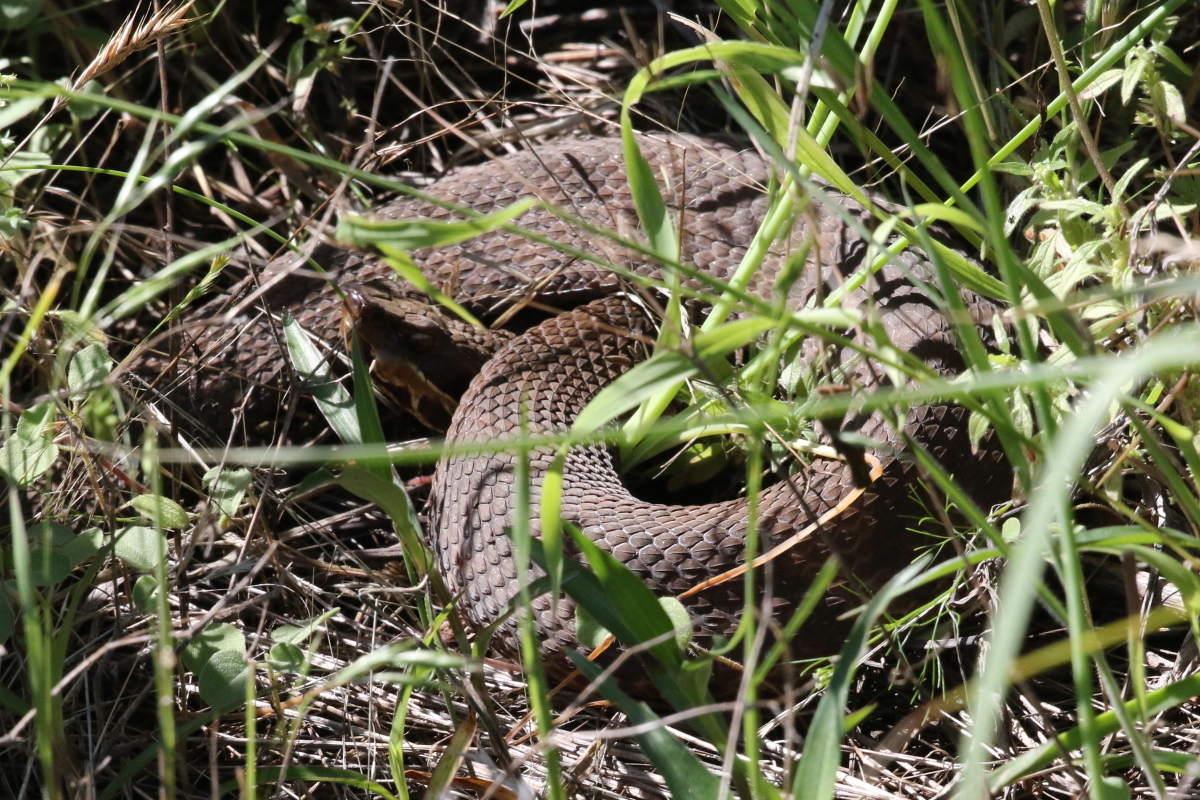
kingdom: Animalia
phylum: Chordata
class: Squamata
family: Viperidae
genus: Agkistrodon
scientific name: Agkistrodon piscivorus
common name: Cottonmouth
